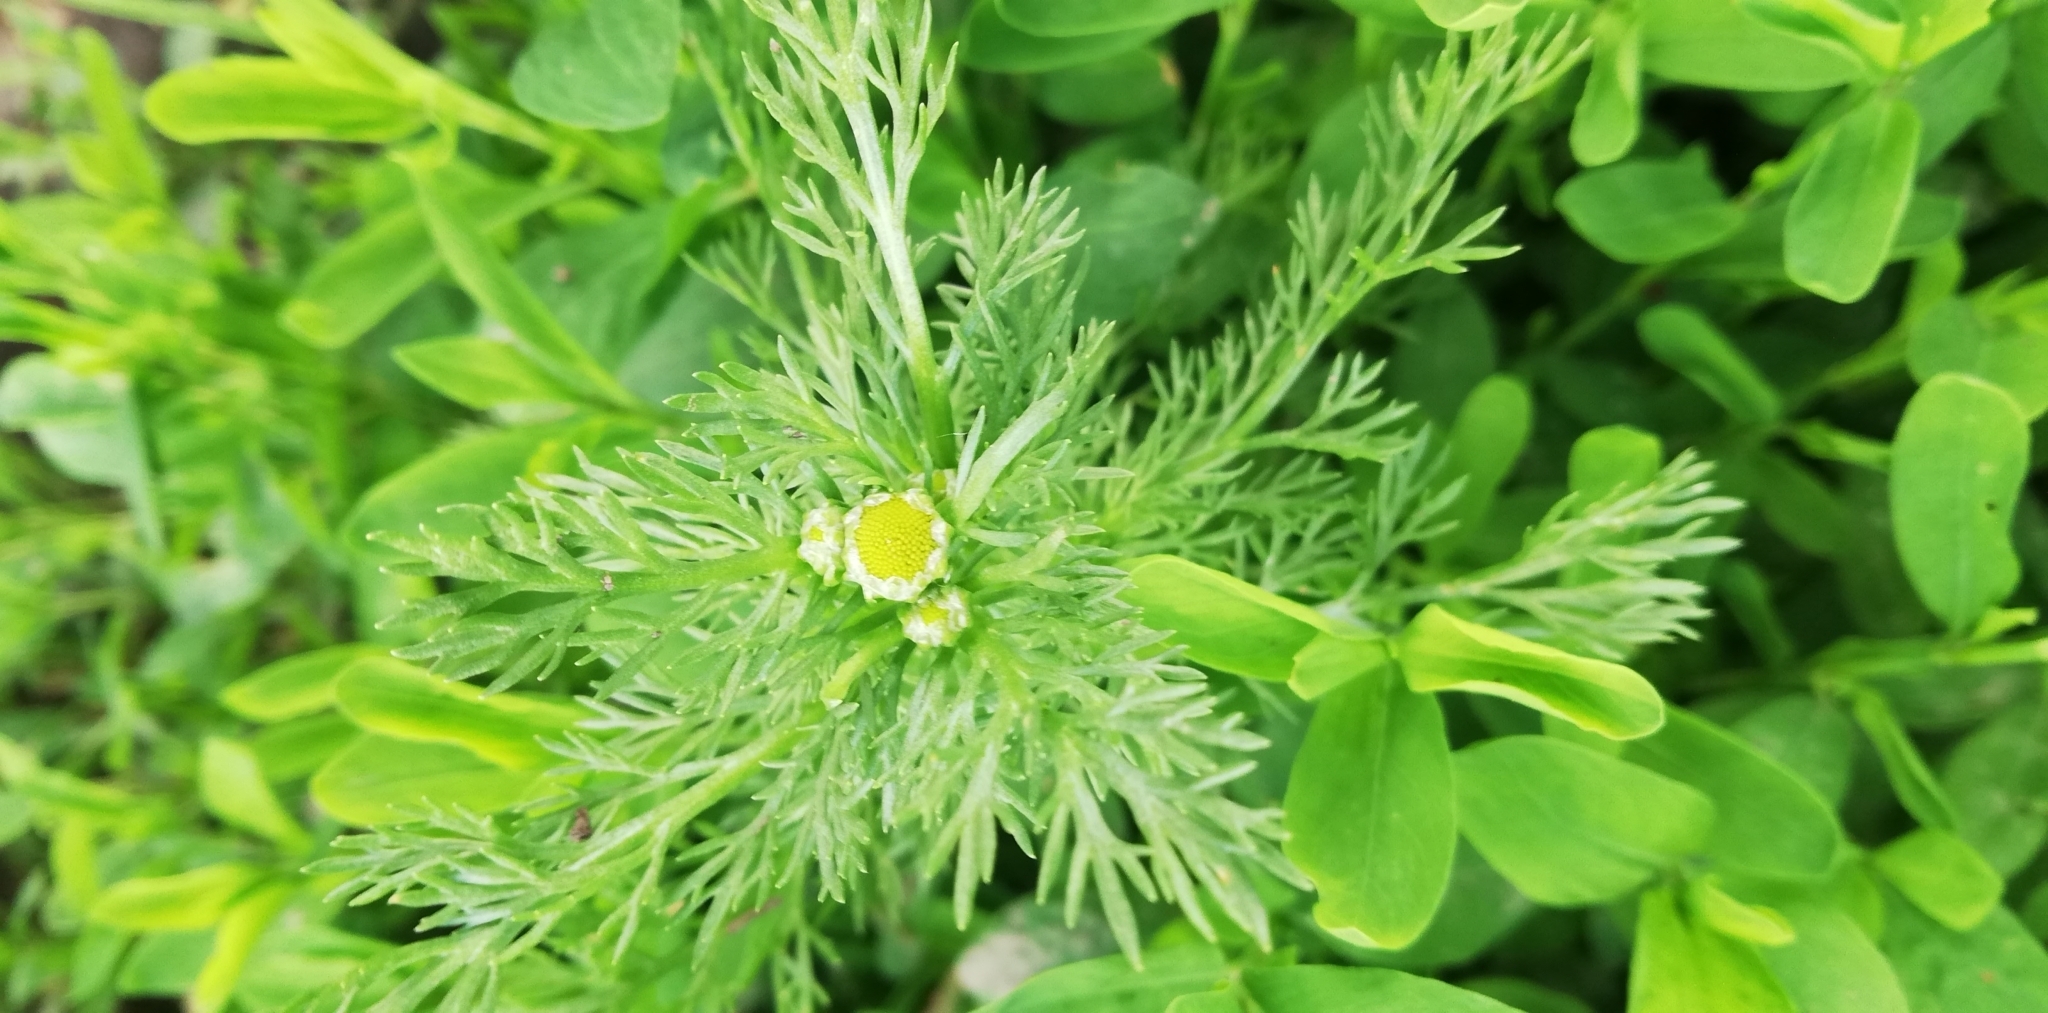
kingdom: Plantae
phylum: Tracheophyta
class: Magnoliopsida
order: Asterales
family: Asteraceae
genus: Matricaria
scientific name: Matricaria discoidea
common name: Disc mayweed
